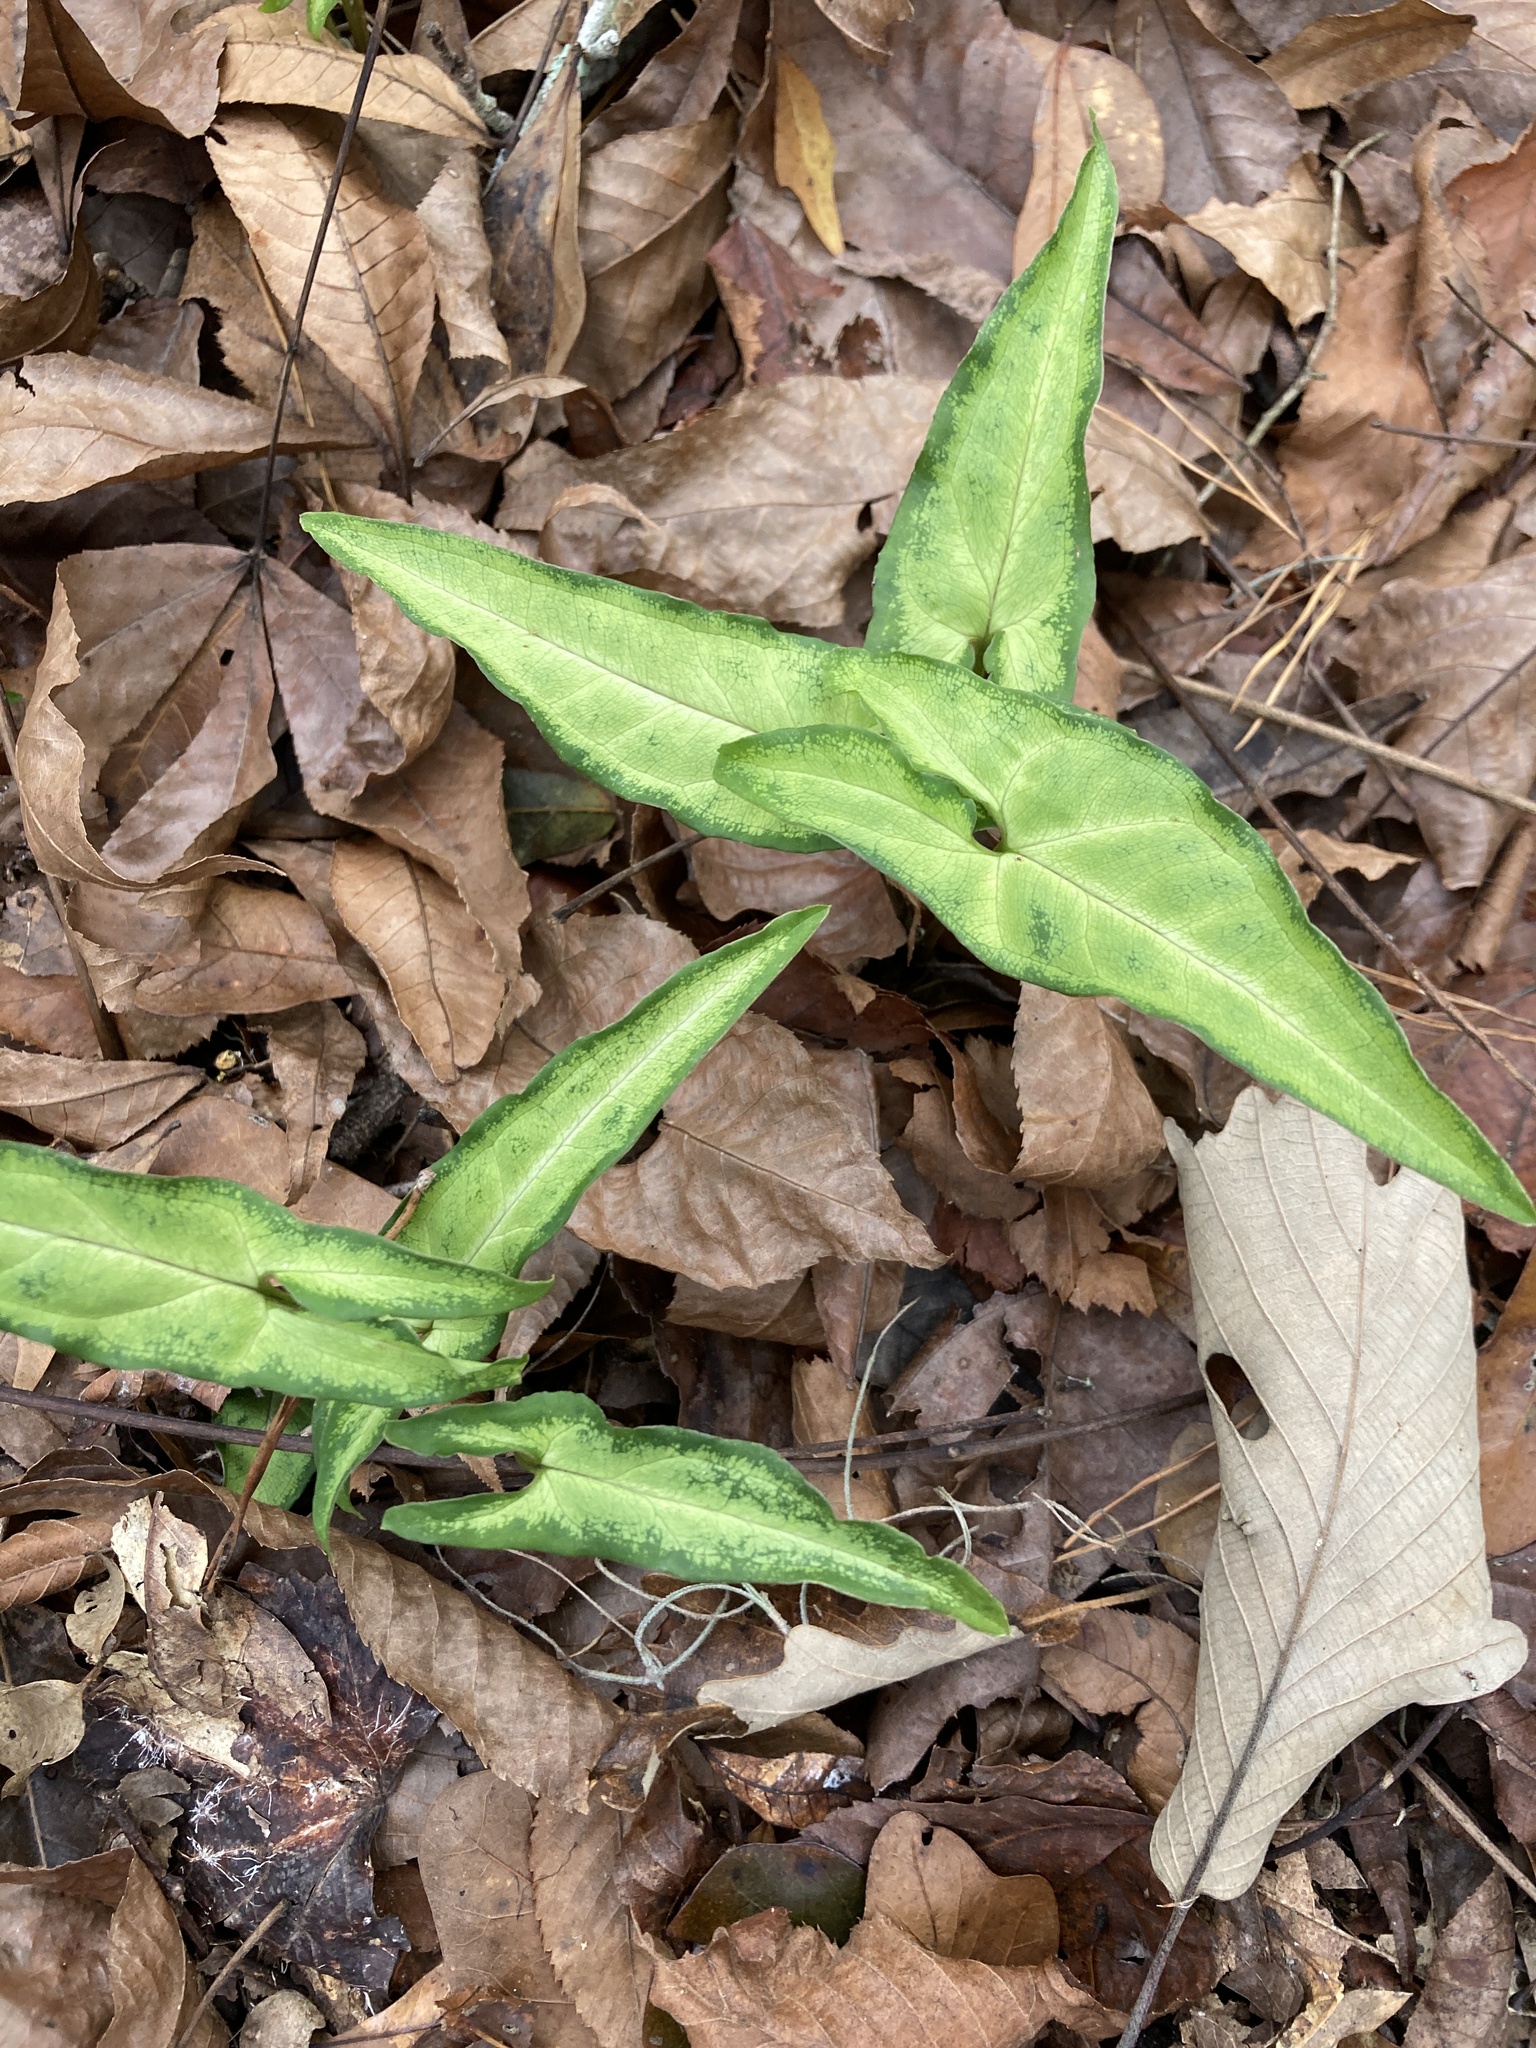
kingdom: Plantae
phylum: Tracheophyta
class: Liliopsida
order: Alismatales
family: Araceae
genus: Syngonium
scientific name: Syngonium podophyllum
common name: American evergreen
